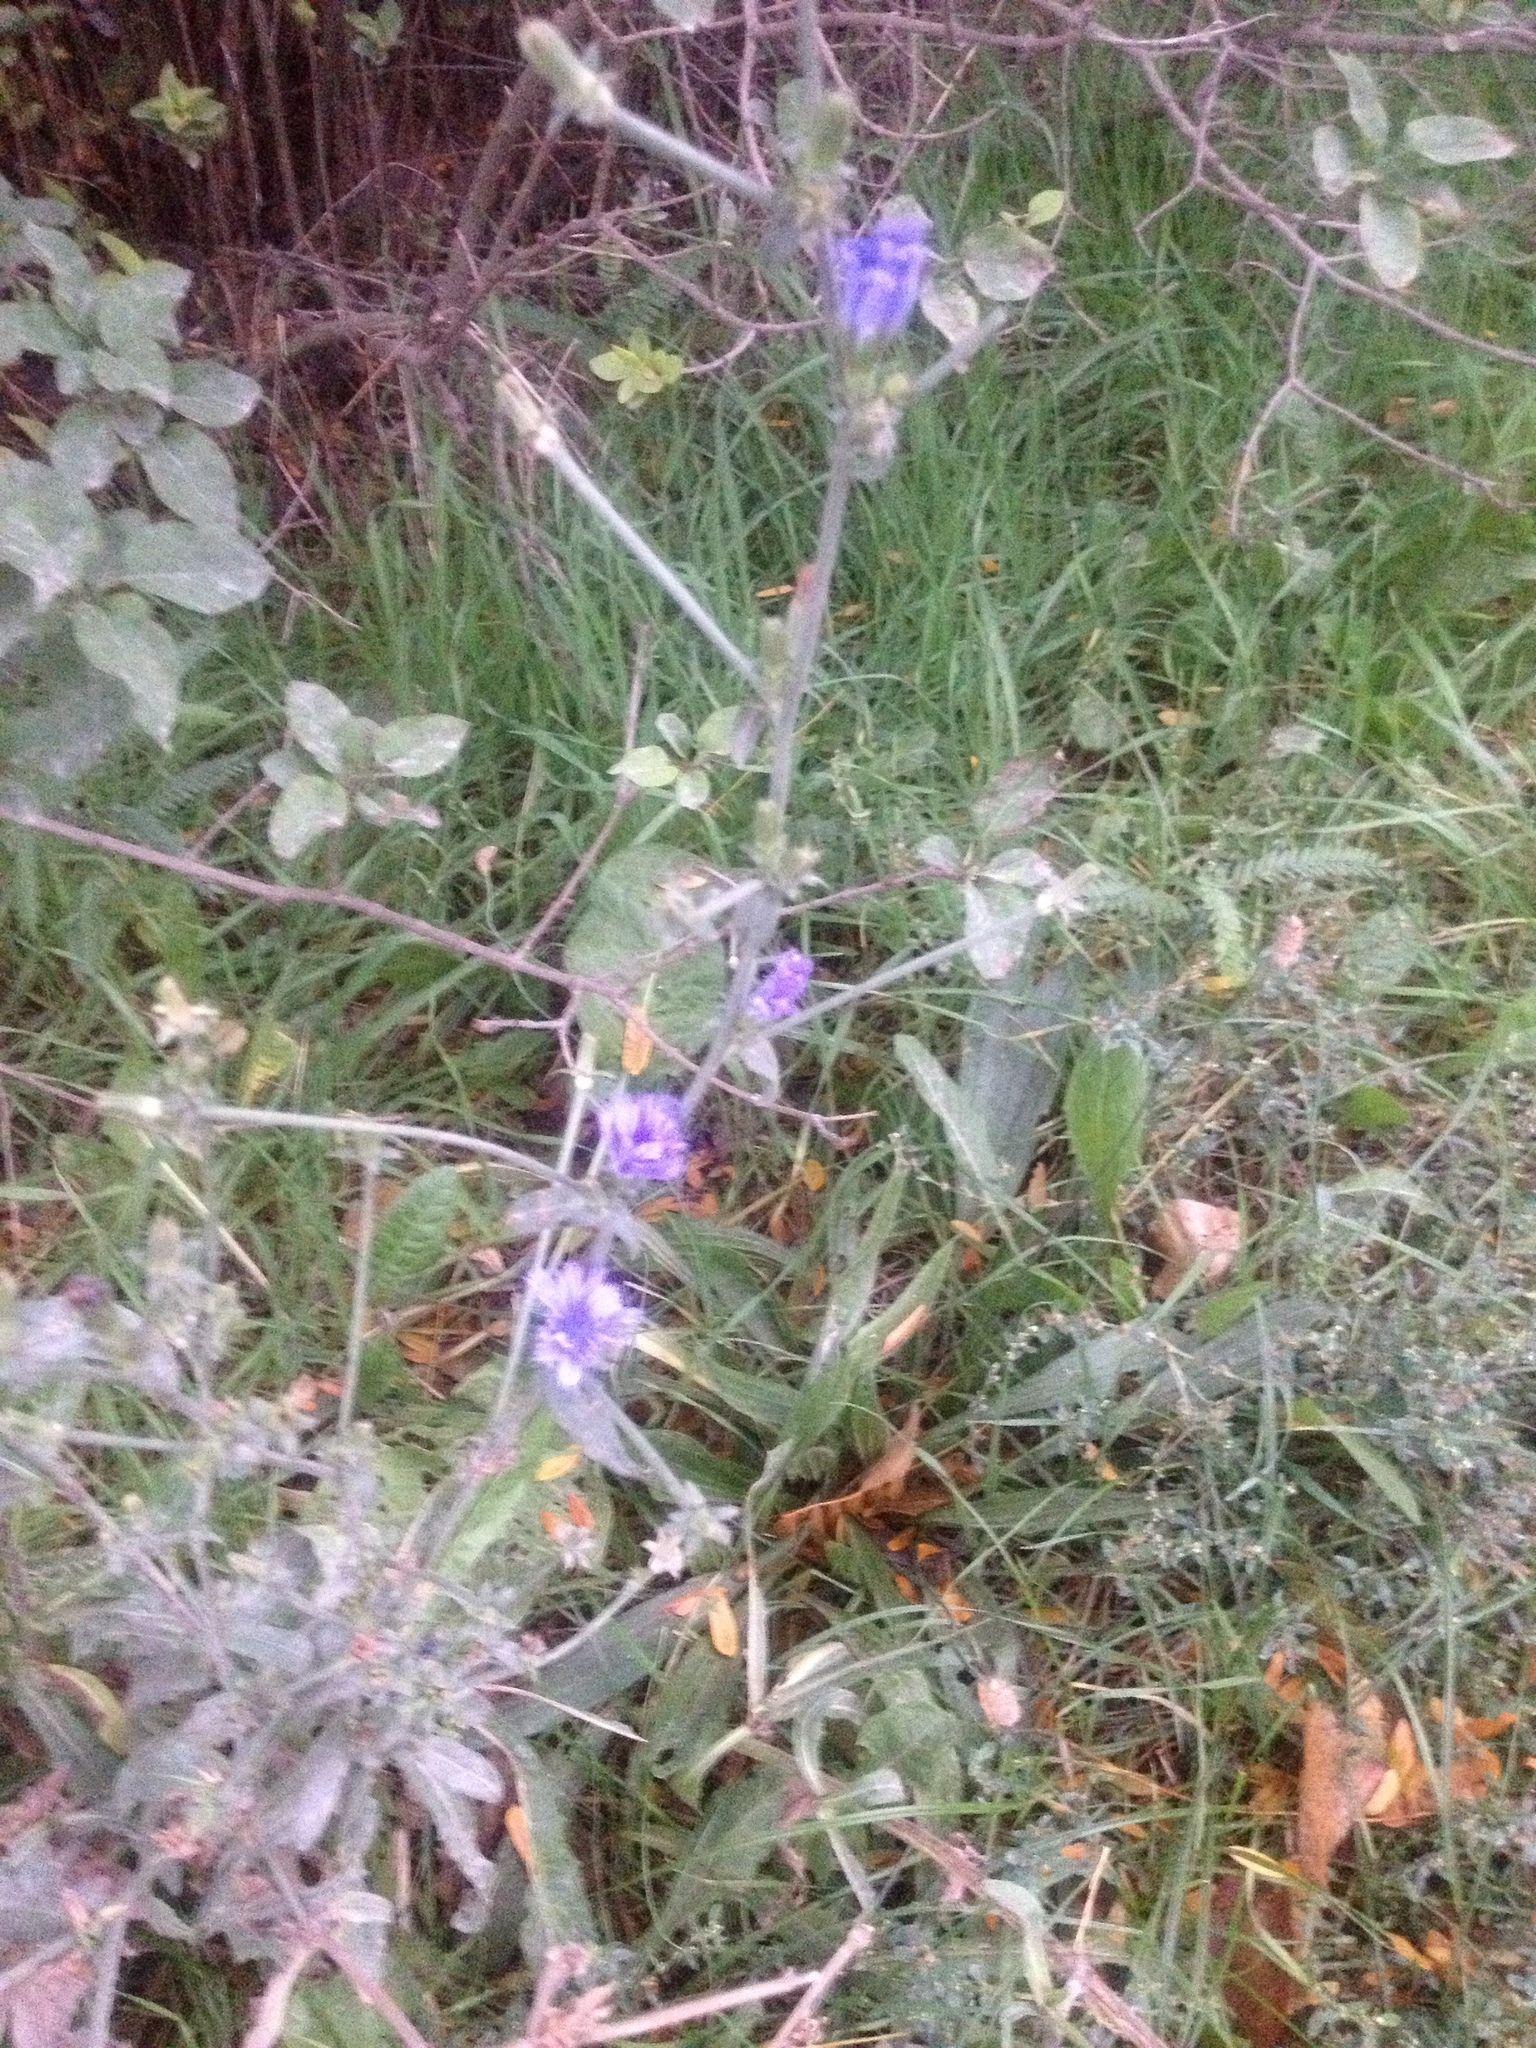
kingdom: Plantae
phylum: Tracheophyta
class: Magnoliopsida
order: Asterales
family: Asteraceae
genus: Cichorium
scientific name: Cichorium intybus
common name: Chicory
